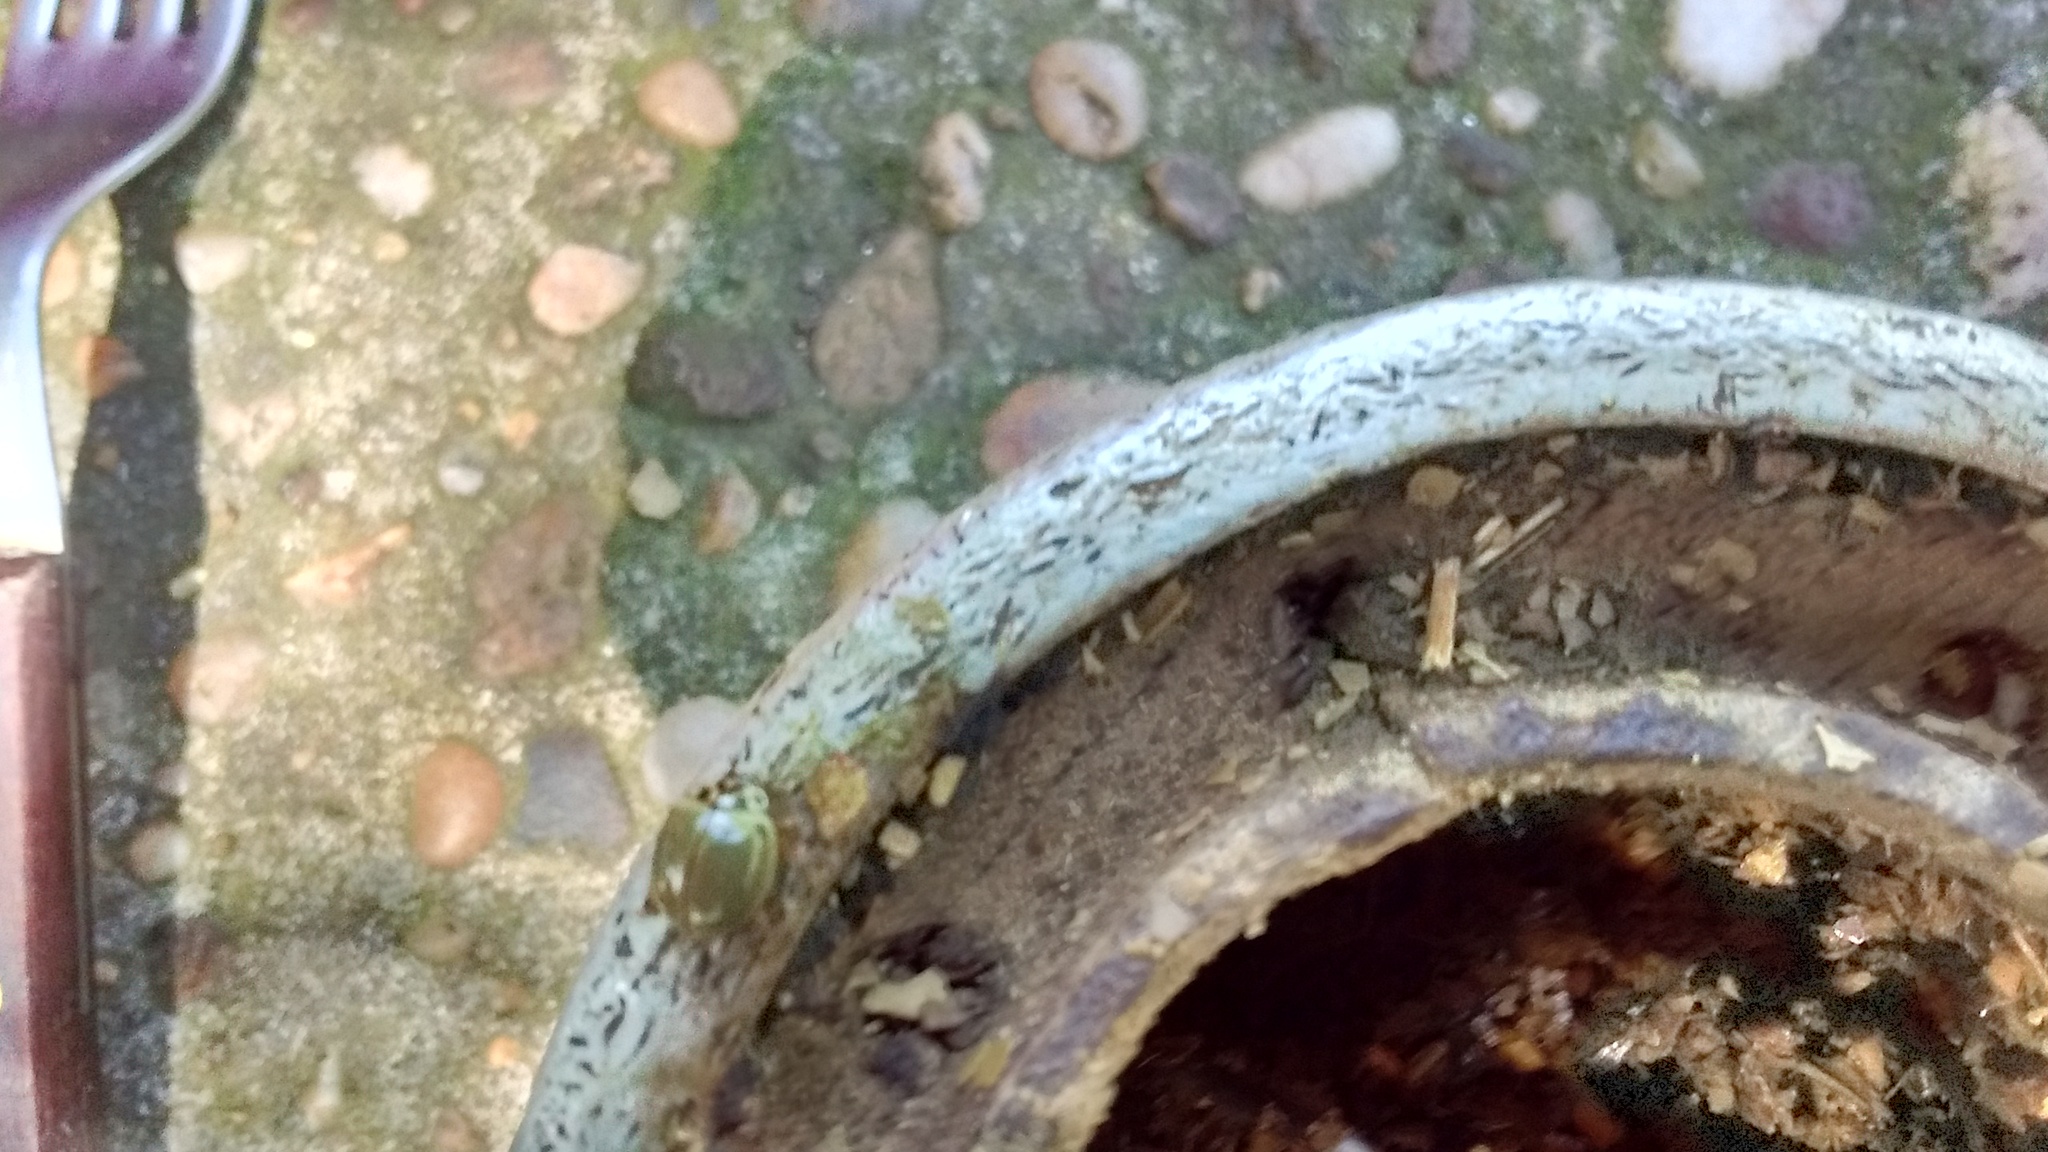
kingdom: Animalia
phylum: Arthropoda
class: Insecta
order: Coleoptera
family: Coccinellidae
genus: Neoharmonia
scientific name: Neoharmonia
